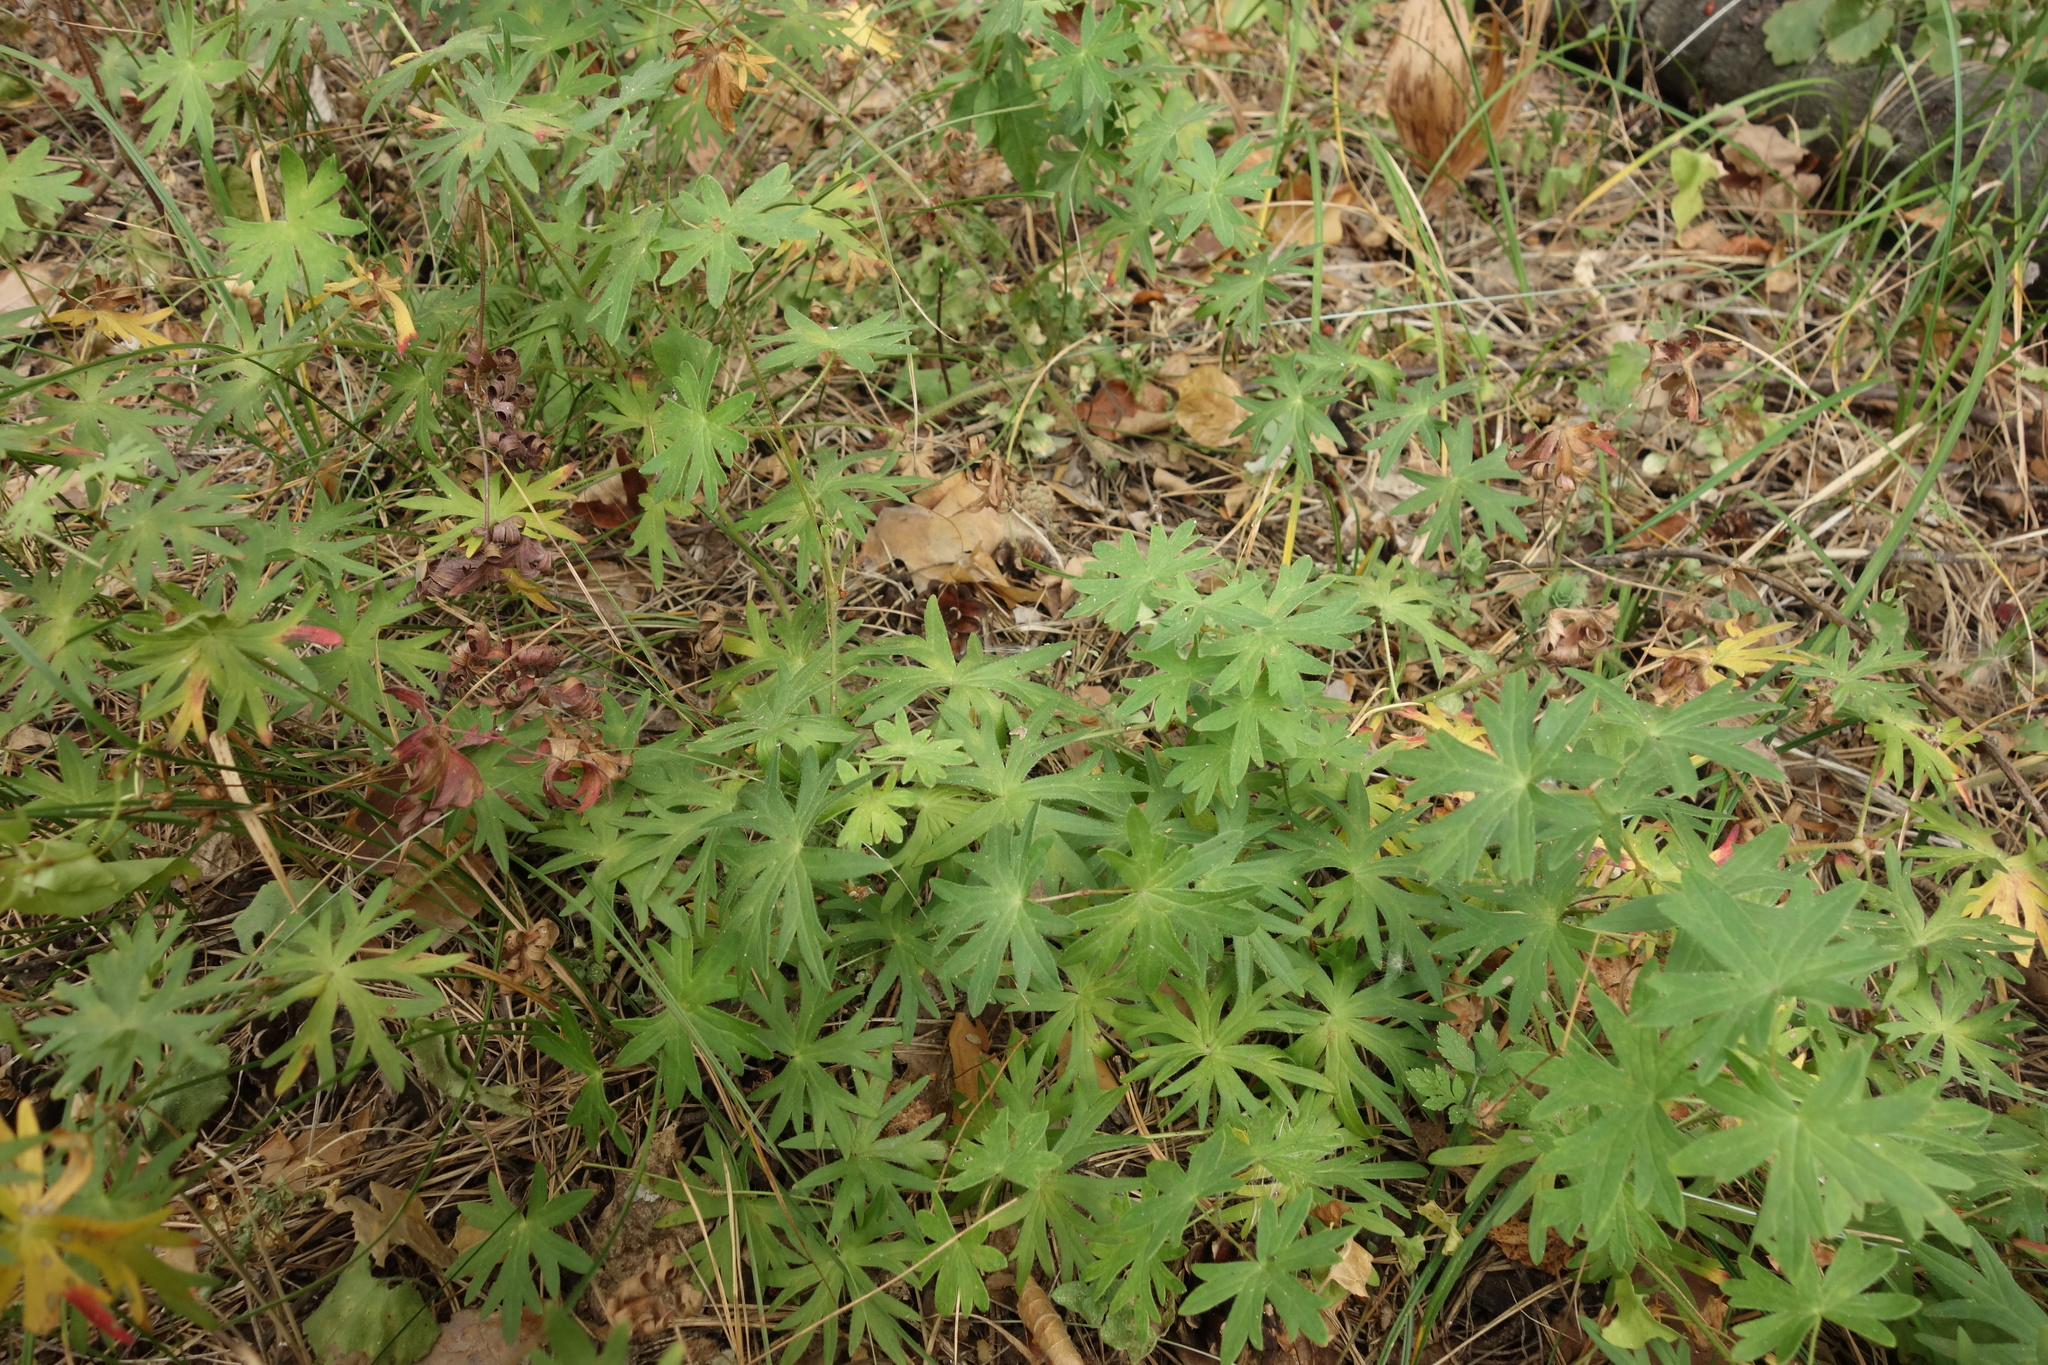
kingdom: Plantae
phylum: Tracheophyta
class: Magnoliopsida
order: Geraniales
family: Geraniaceae
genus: Geranium
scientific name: Geranium sanguineum
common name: Bloody crane's-bill
